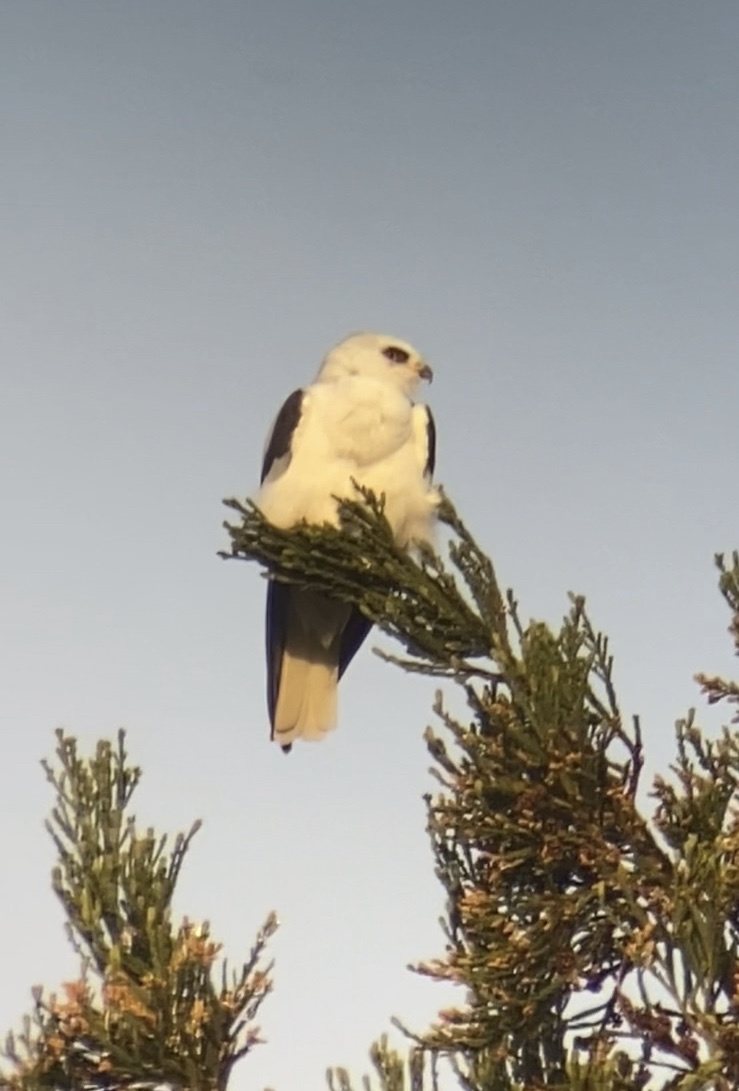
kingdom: Animalia
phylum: Chordata
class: Aves
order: Accipitriformes
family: Accipitridae
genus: Elanus
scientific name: Elanus leucurus
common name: White-tailed kite
